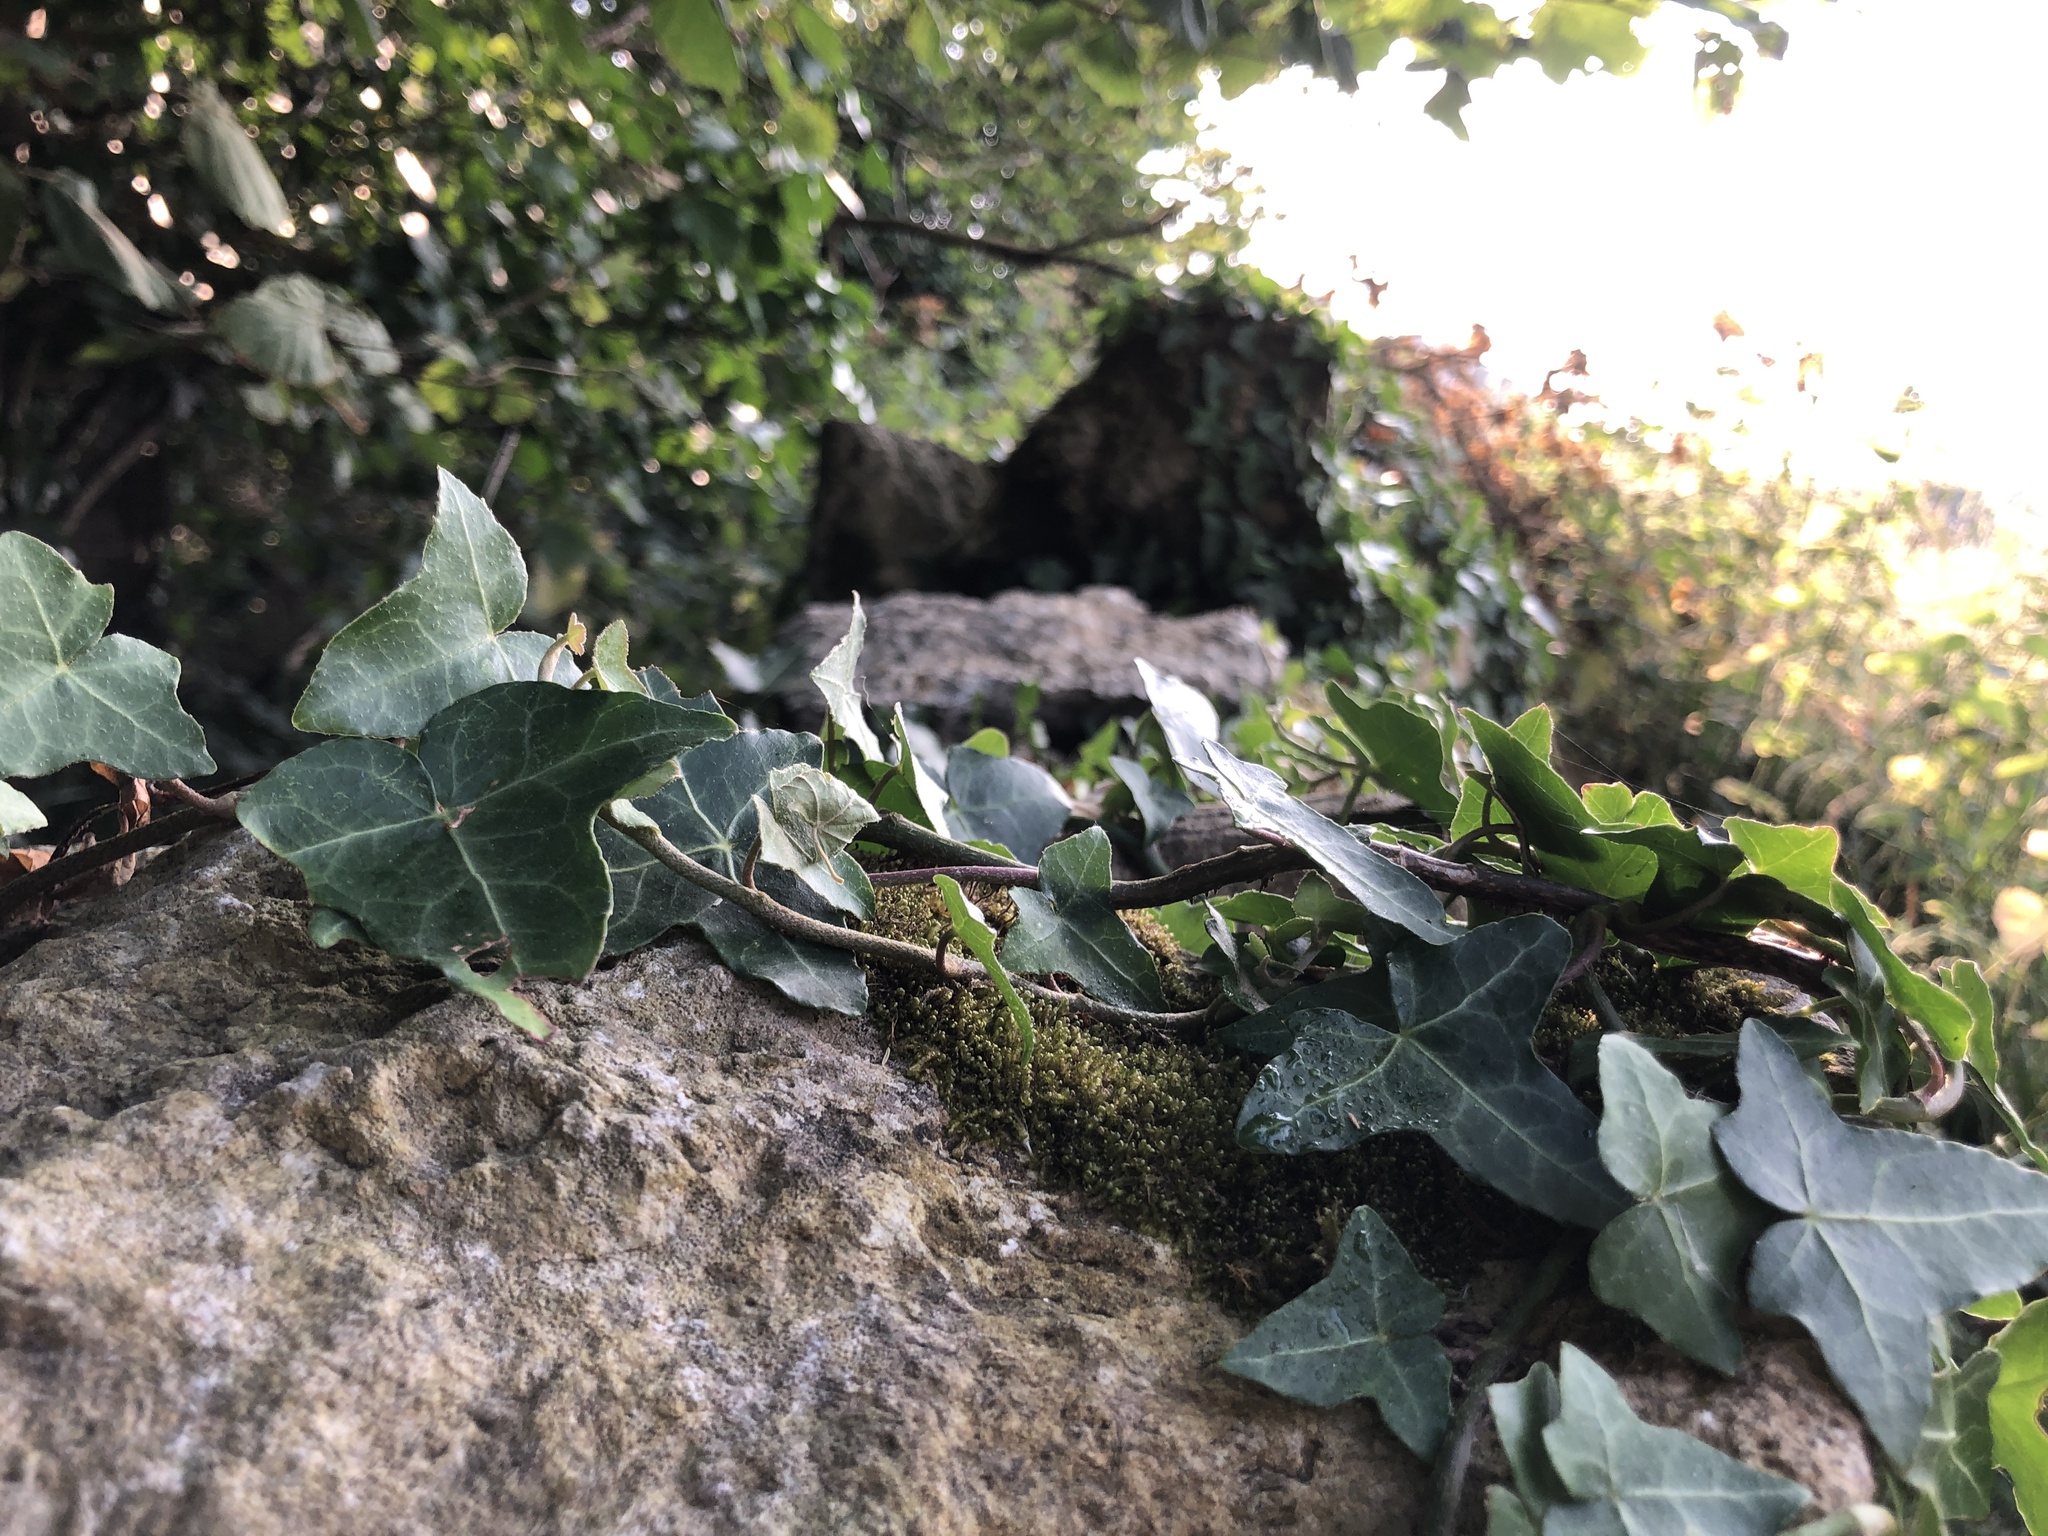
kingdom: Plantae
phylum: Bryophyta
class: Bryopsida
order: Hypnales
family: Neckeraceae
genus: Homalia
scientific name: Homalia trichomanoides
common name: Lime homalia moss
